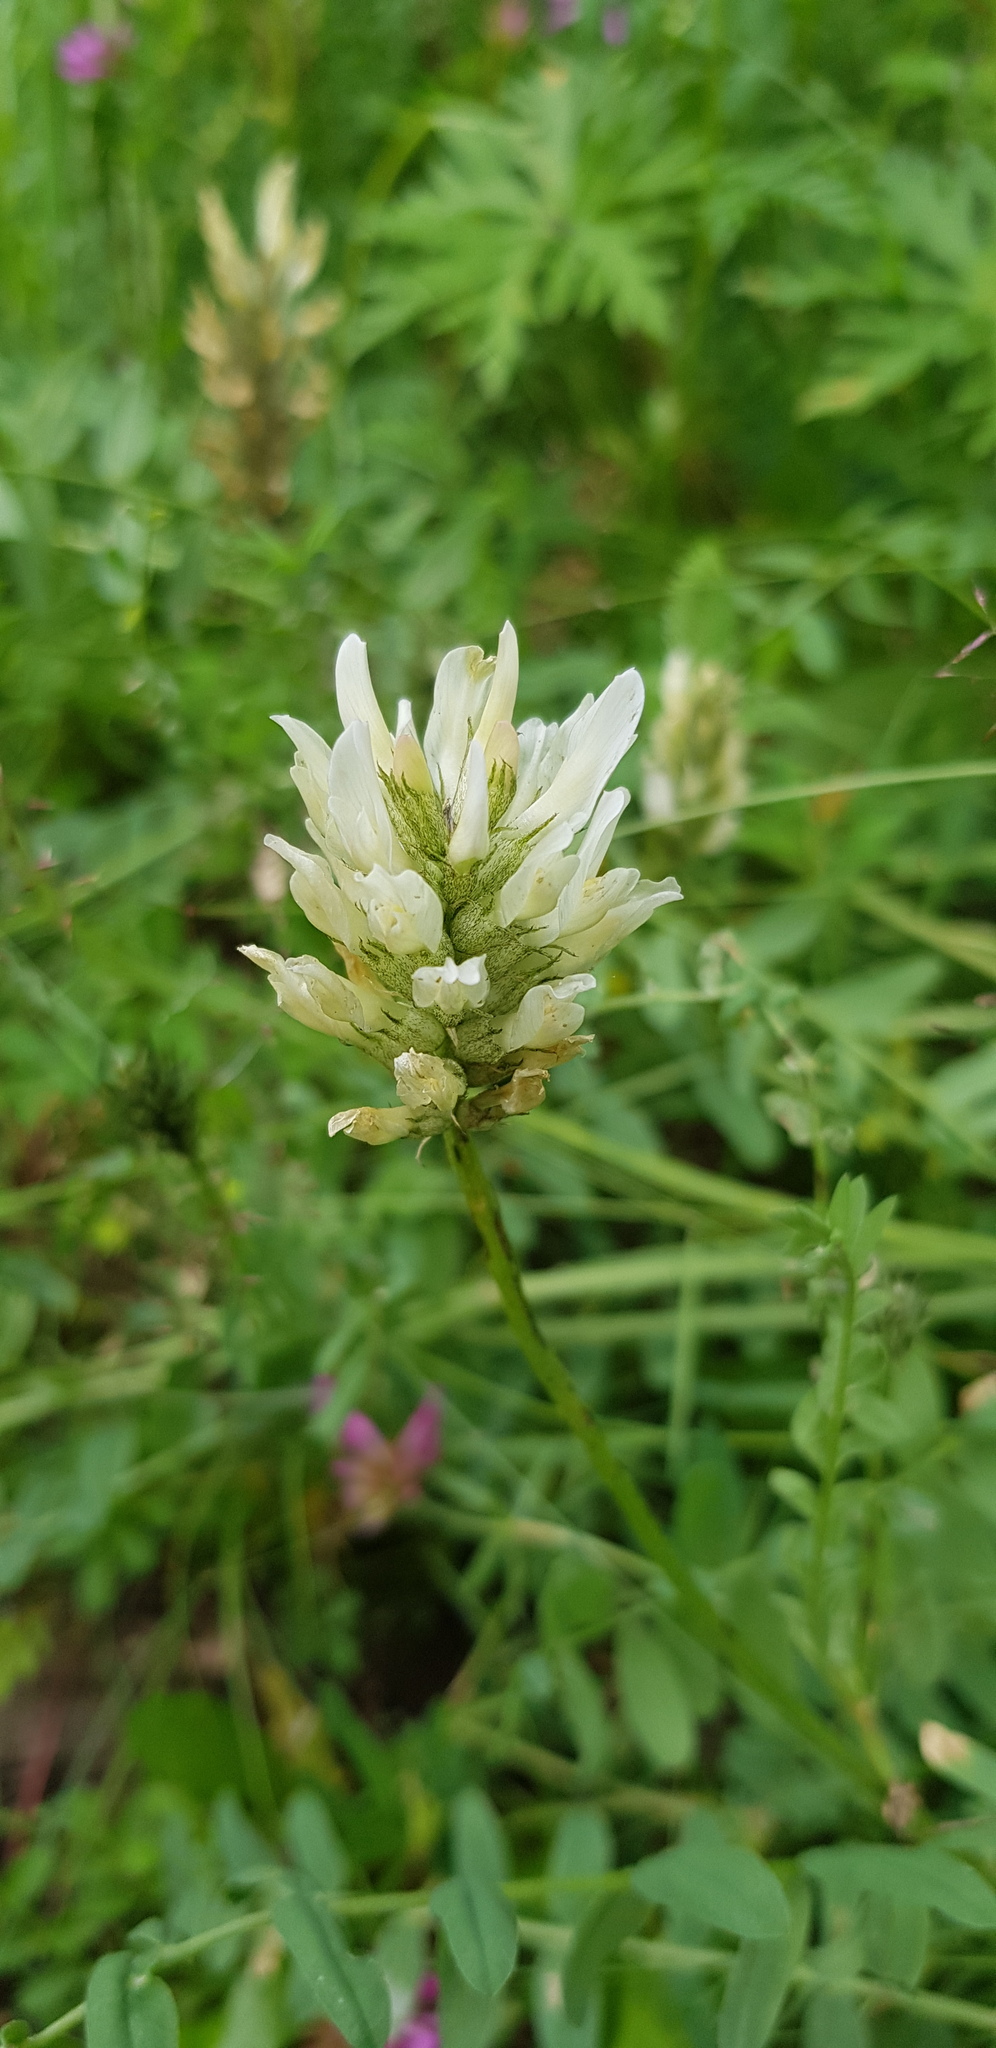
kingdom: Plantae
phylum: Tracheophyta
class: Magnoliopsida
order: Fabales
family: Fabaceae
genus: Astragalus
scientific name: Astragalus laxmannii
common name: Laxmann's milk-vetch
